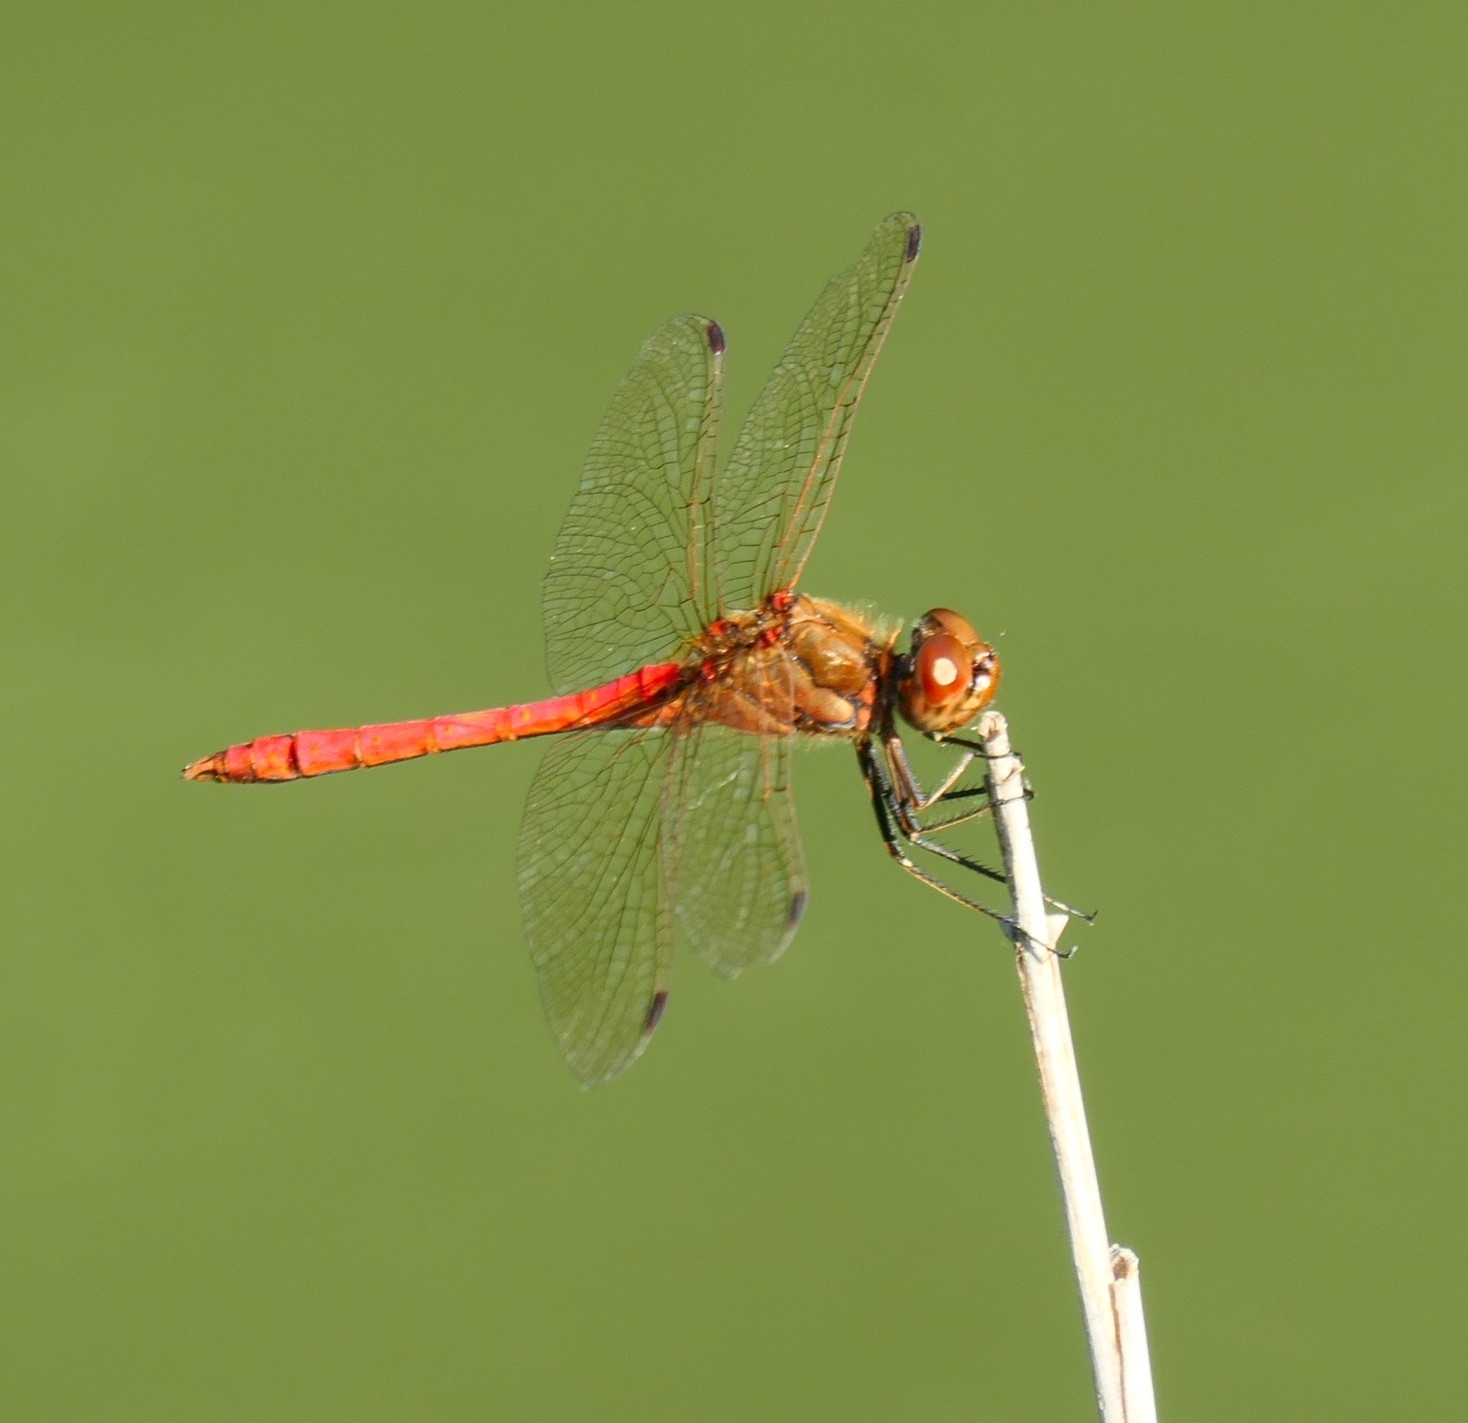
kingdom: Animalia
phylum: Arthropoda
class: Insecta
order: Odonata
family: Libellulidae
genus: Sympetrum
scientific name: Sympetrum meridionale
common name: Southern darter
